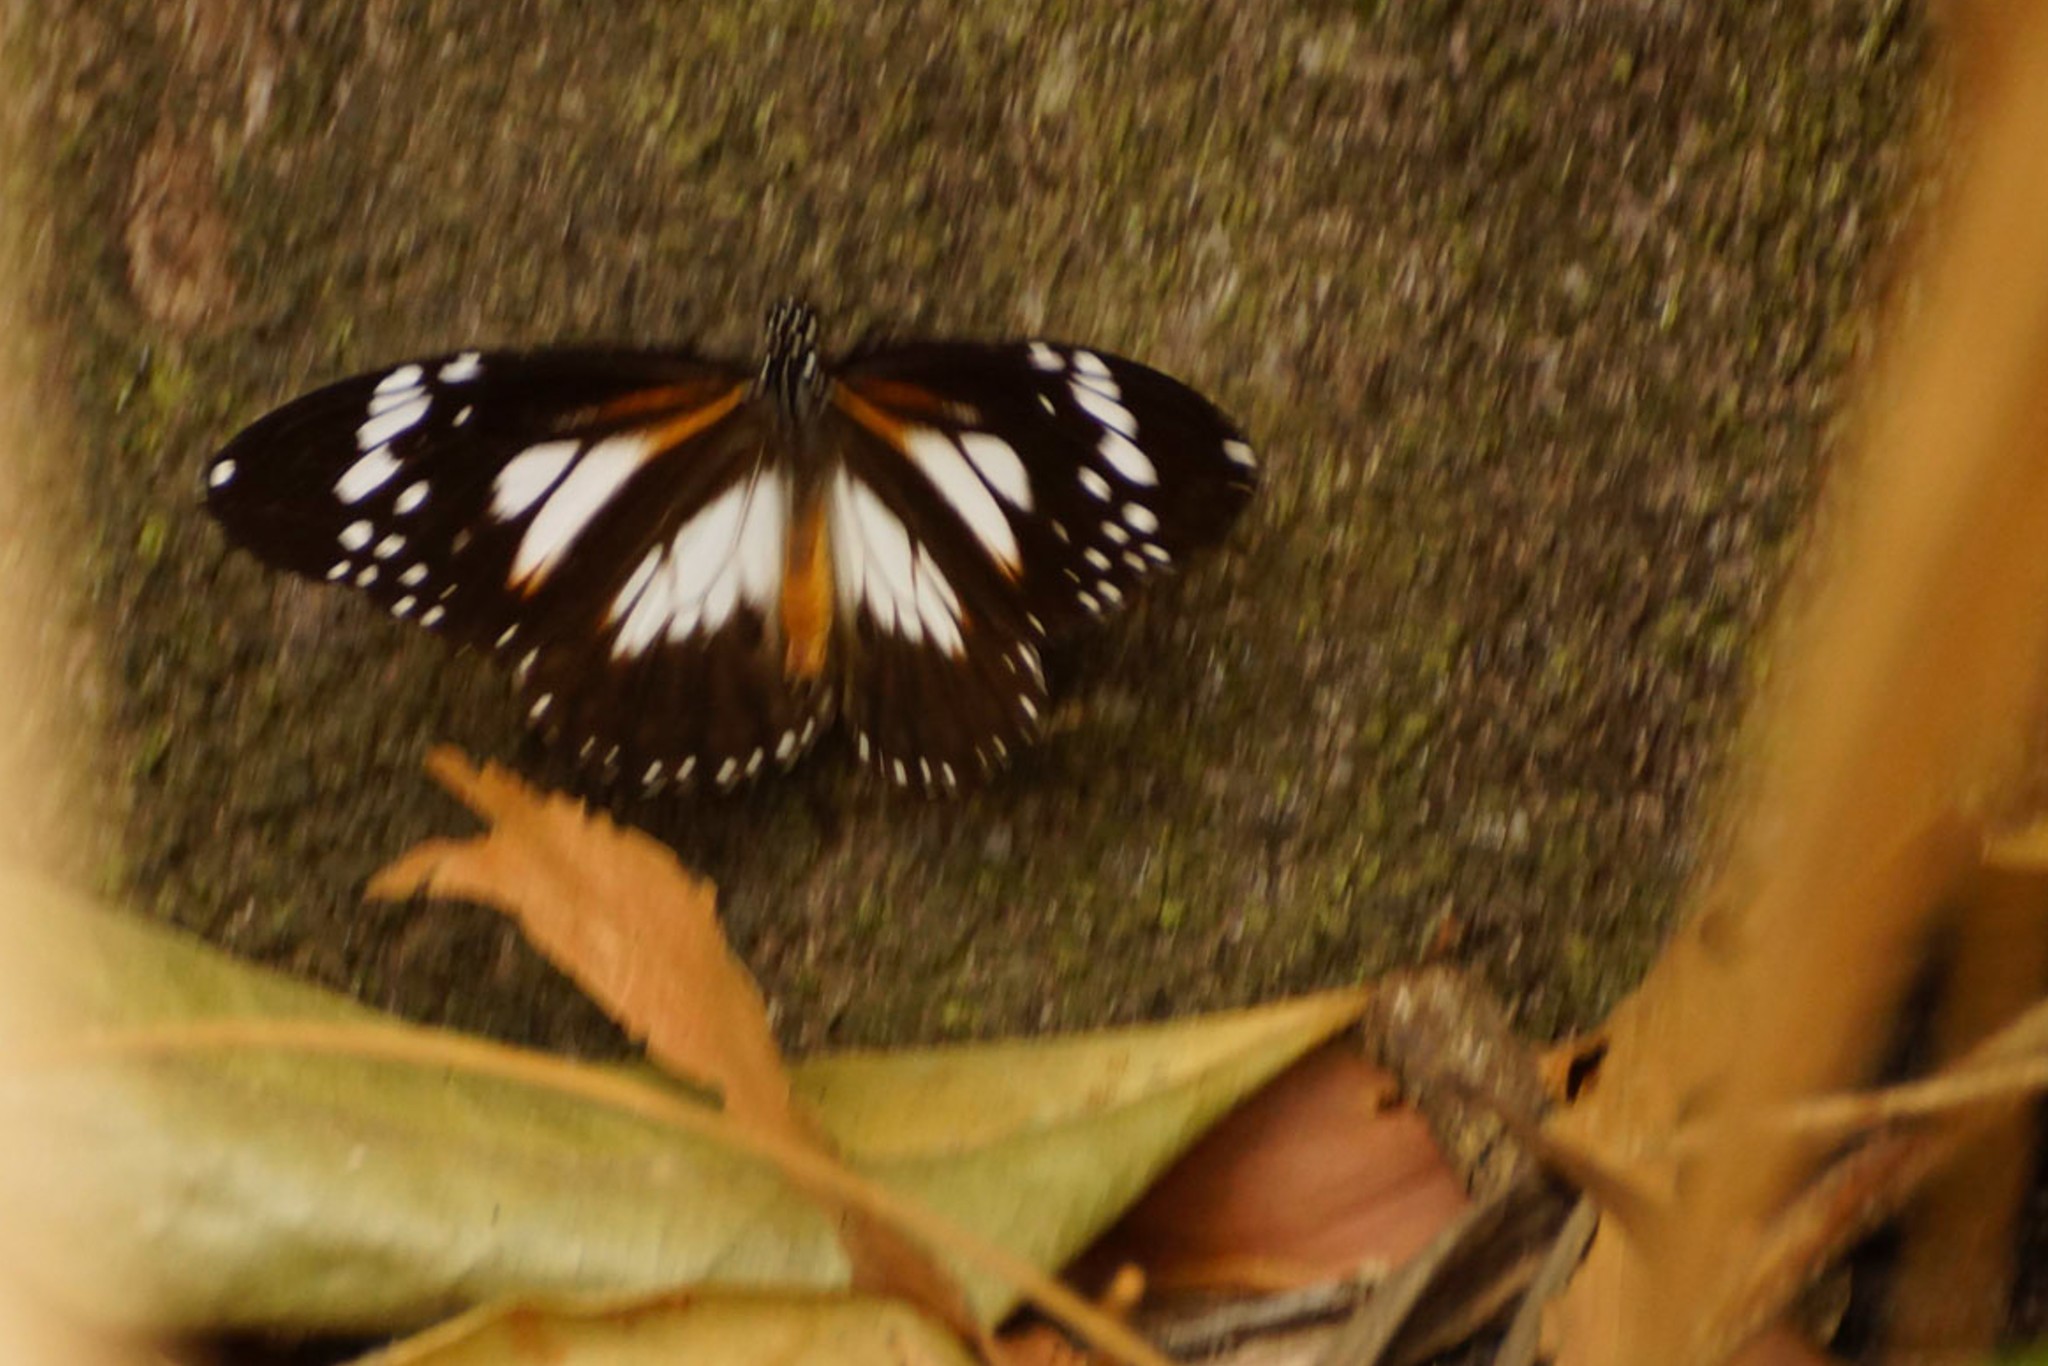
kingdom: Animalia
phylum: Arthropoda
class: Insecta
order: Lepidoptera
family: Nymphalidae
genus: Danaus
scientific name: Danaus affinis
